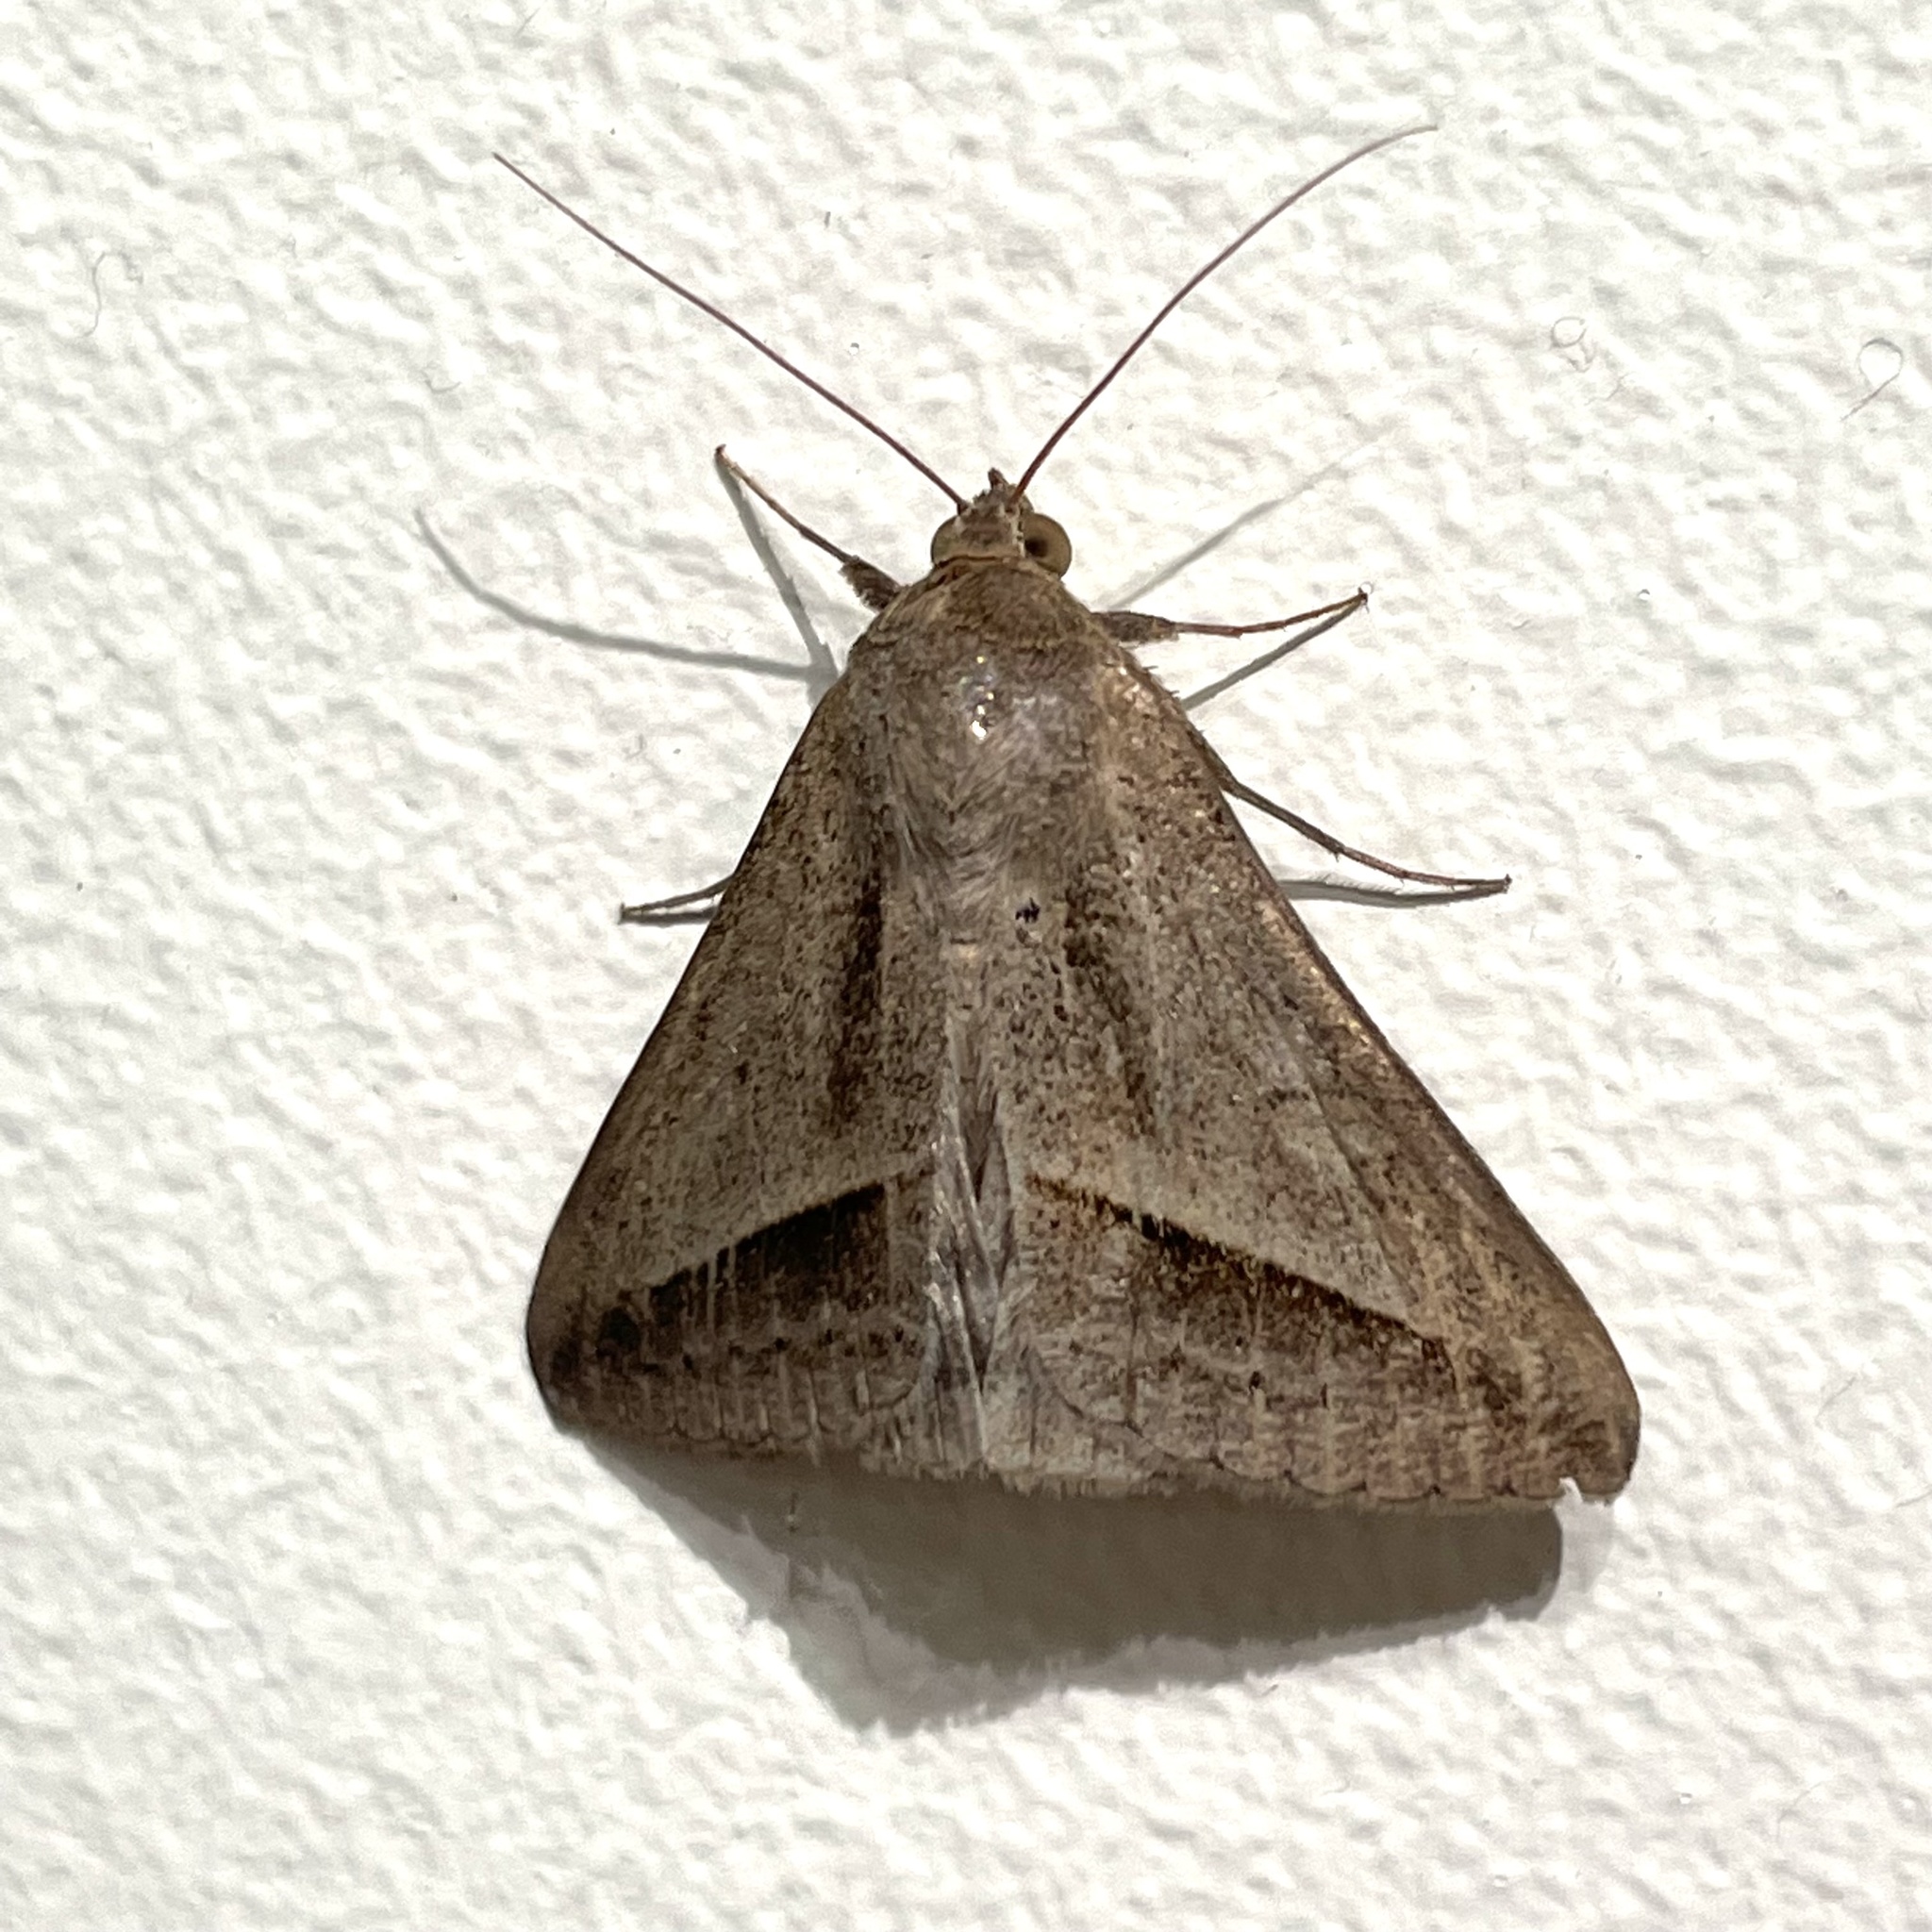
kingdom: Animalia
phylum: Arthropoda
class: Insecta
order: Lepidoptera
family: Erebidae
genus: Mocis
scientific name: Mocis frugalis
